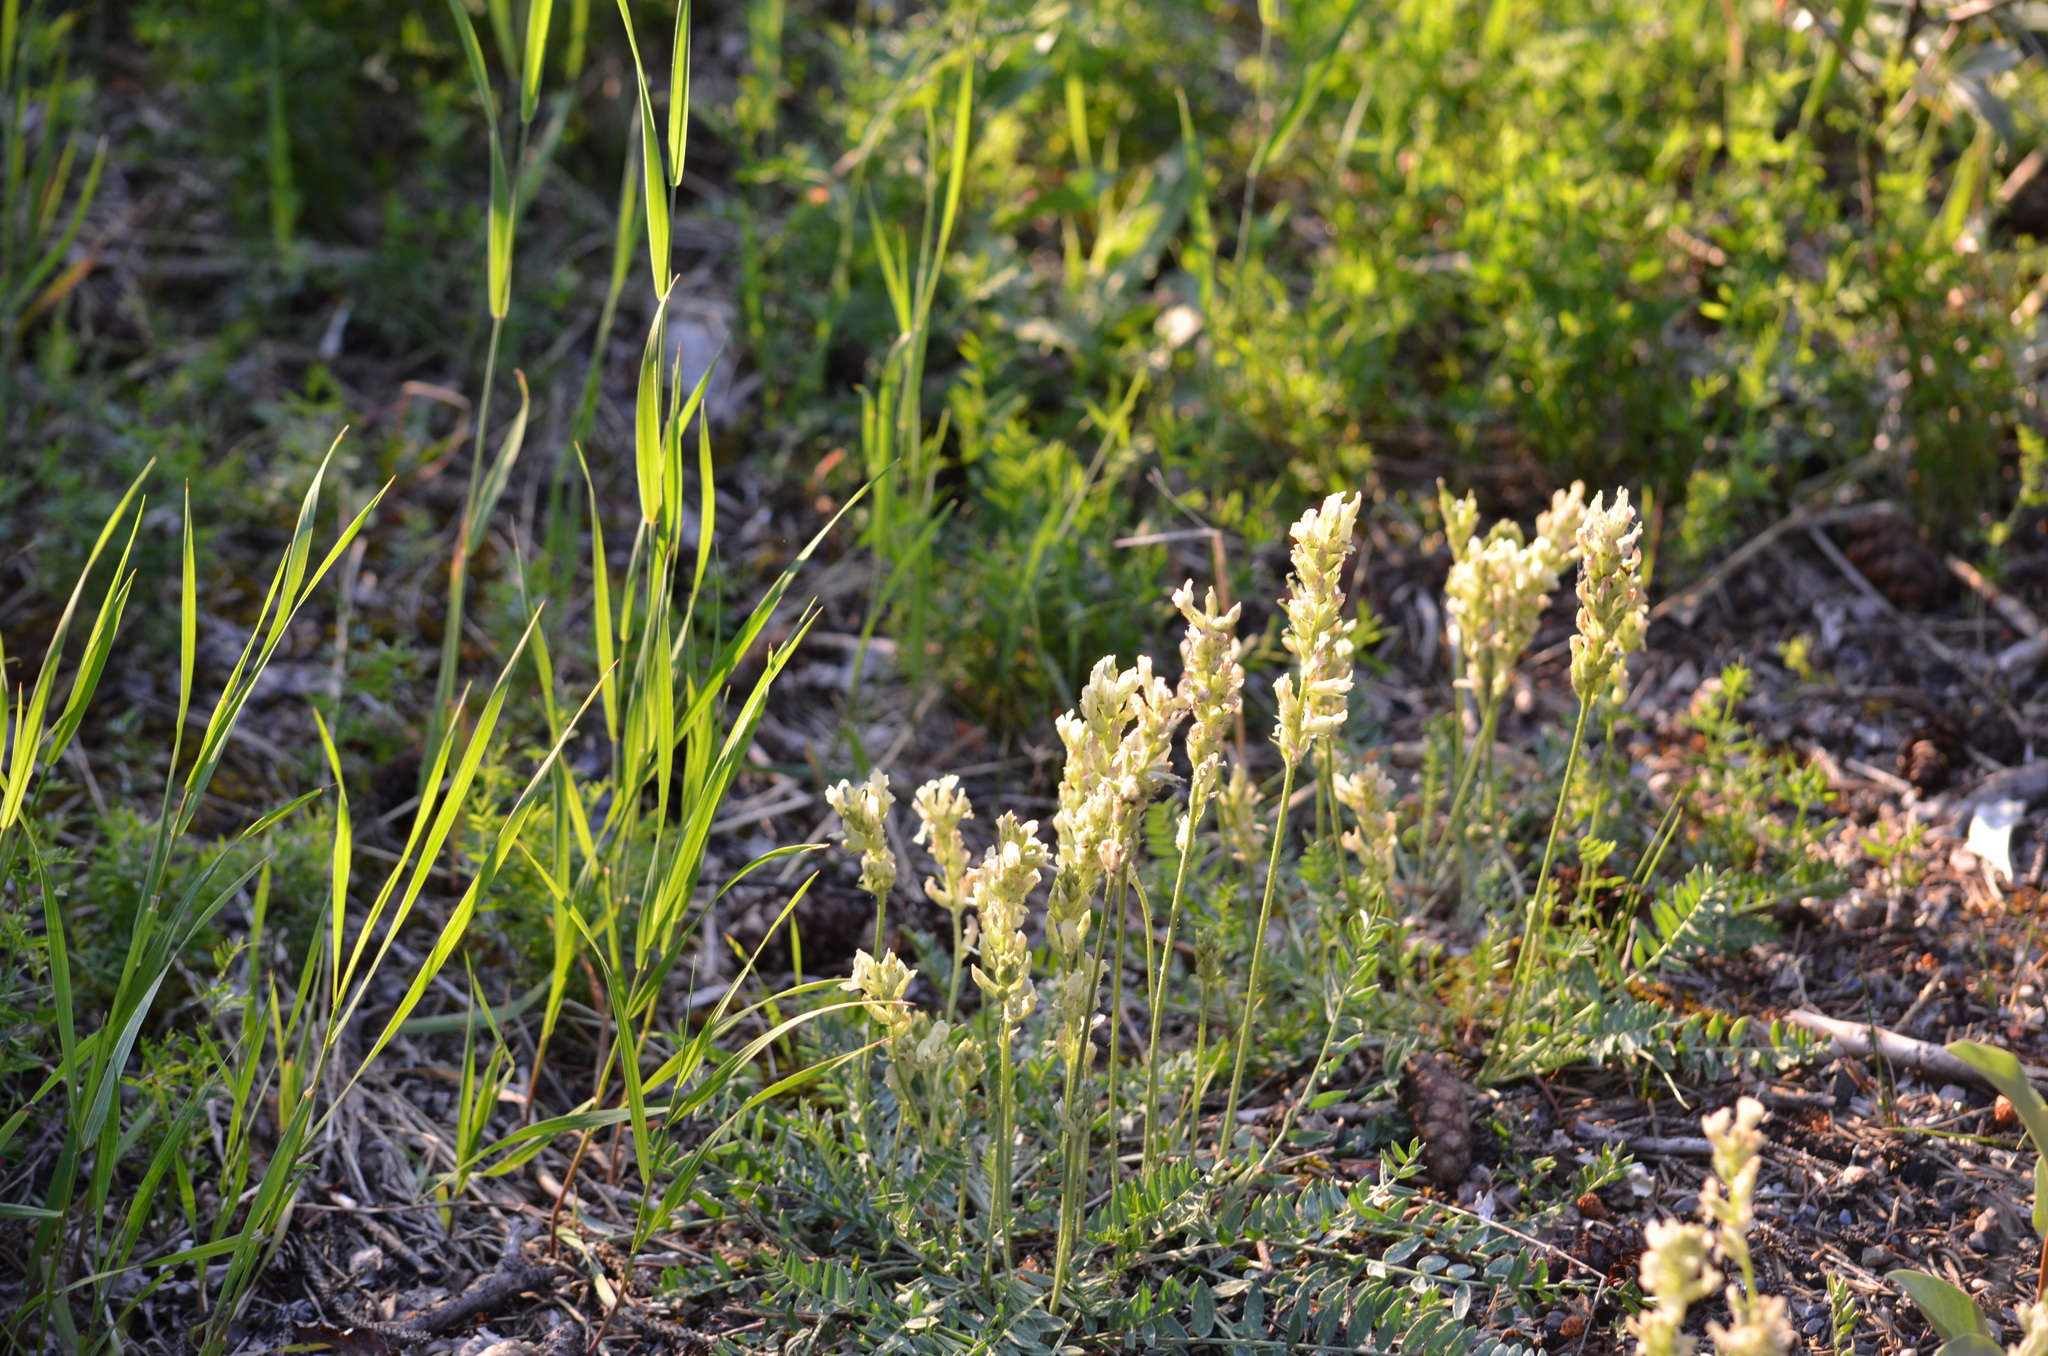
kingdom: Plantae
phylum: Tracheophyta
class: Magnoliopsida
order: Fabales
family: Fabaceae
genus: Oxytropis
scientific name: Oxytropis campestris
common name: Field locoweed
